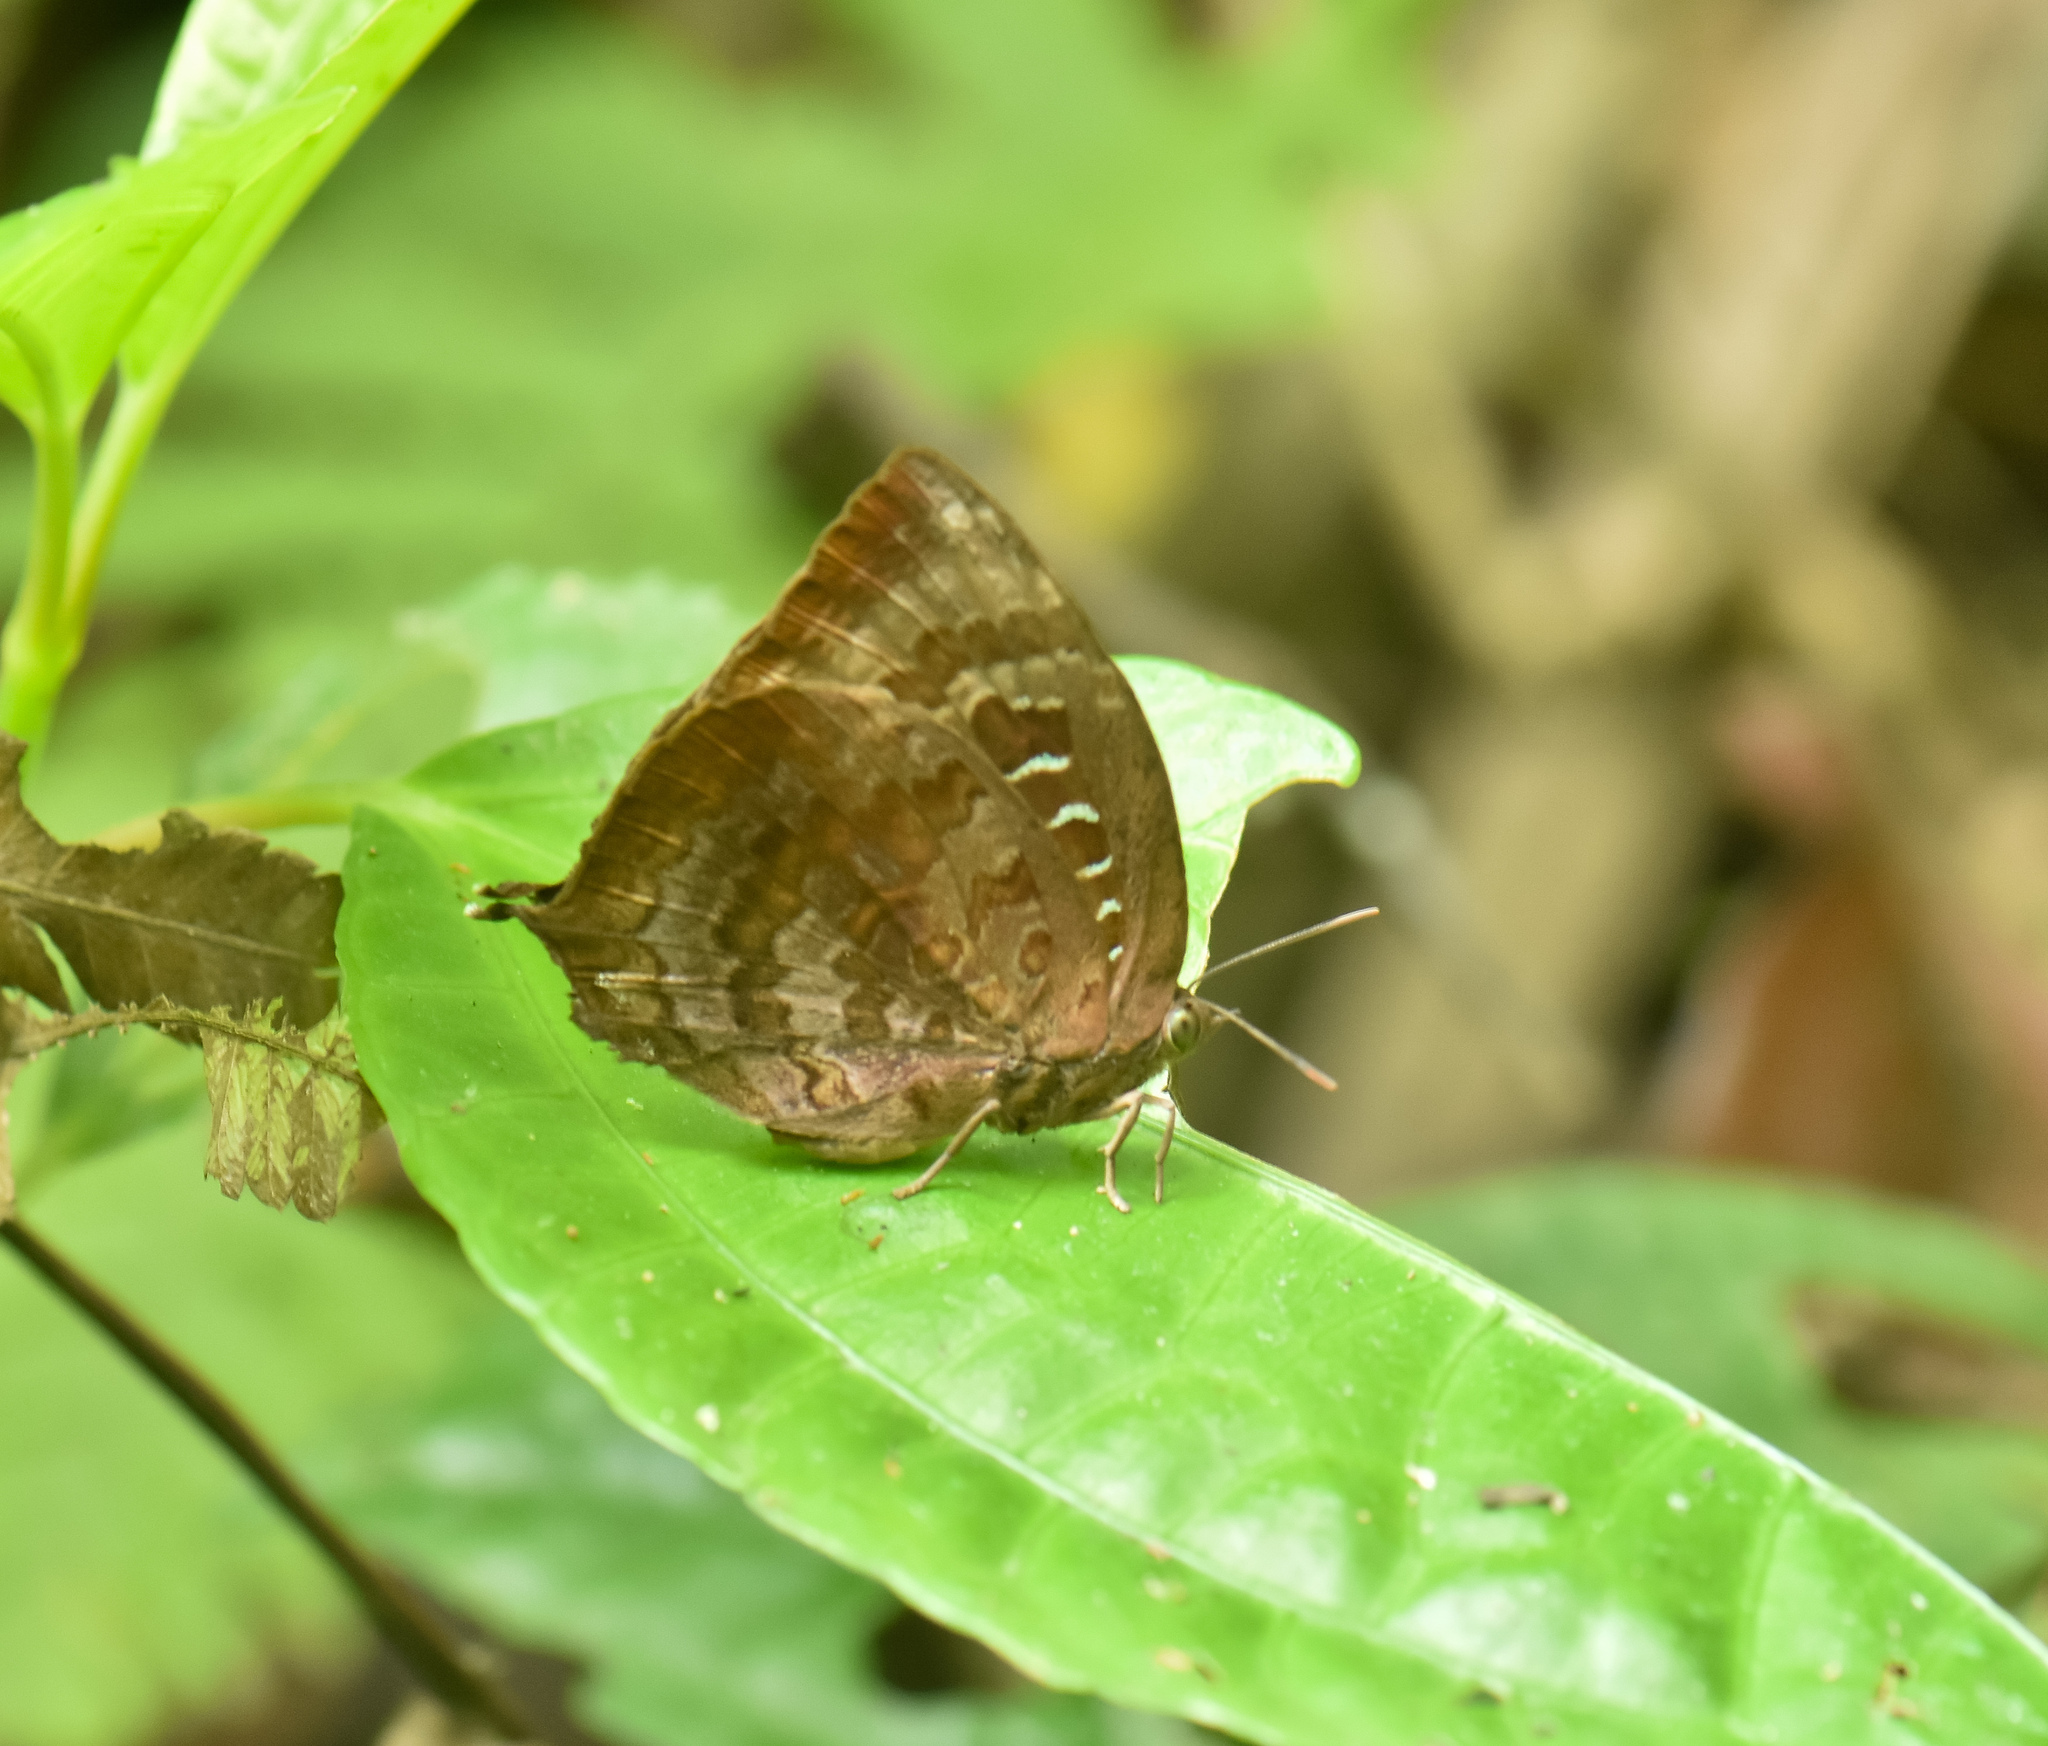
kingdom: Animalia
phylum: Arthropoda
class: Insecta
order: Lepidoptera
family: Lycaenidae
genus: Arhopala
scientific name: Arhopala centaurus
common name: Dull oak-blue
